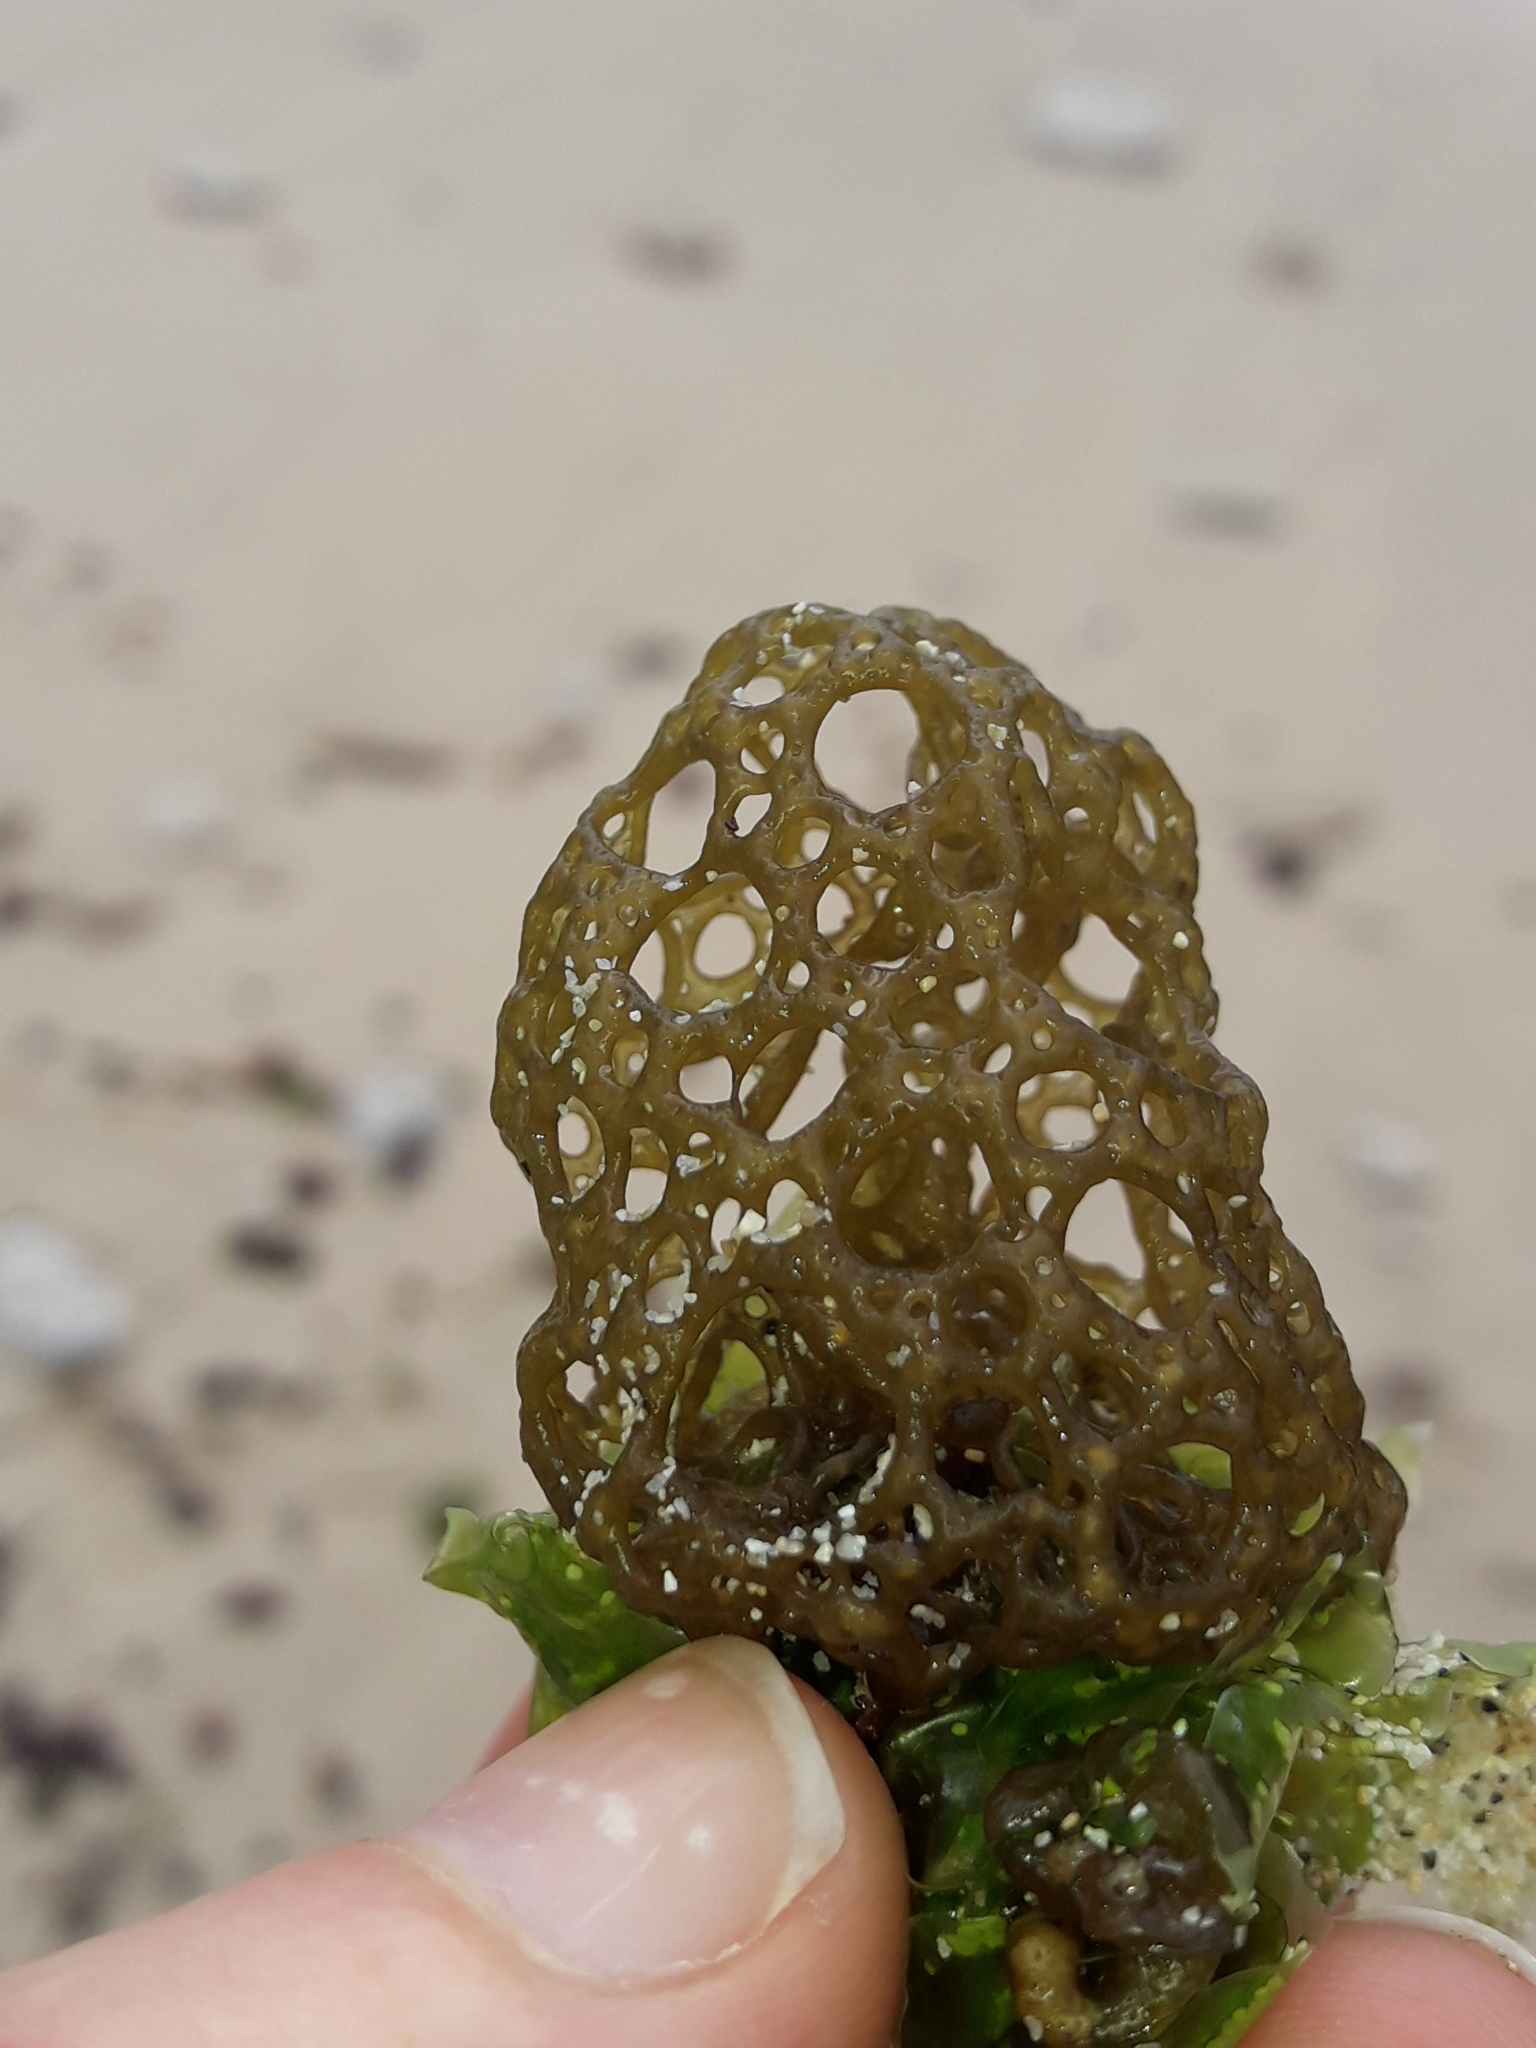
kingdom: Chromista
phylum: Ochrophyta
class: Phaeophyceae
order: Scytosiphonales
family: Scytosiphonaceae
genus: Hydroclathrus
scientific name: Hydroclathrus clathratus
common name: Swiss cheese algae
